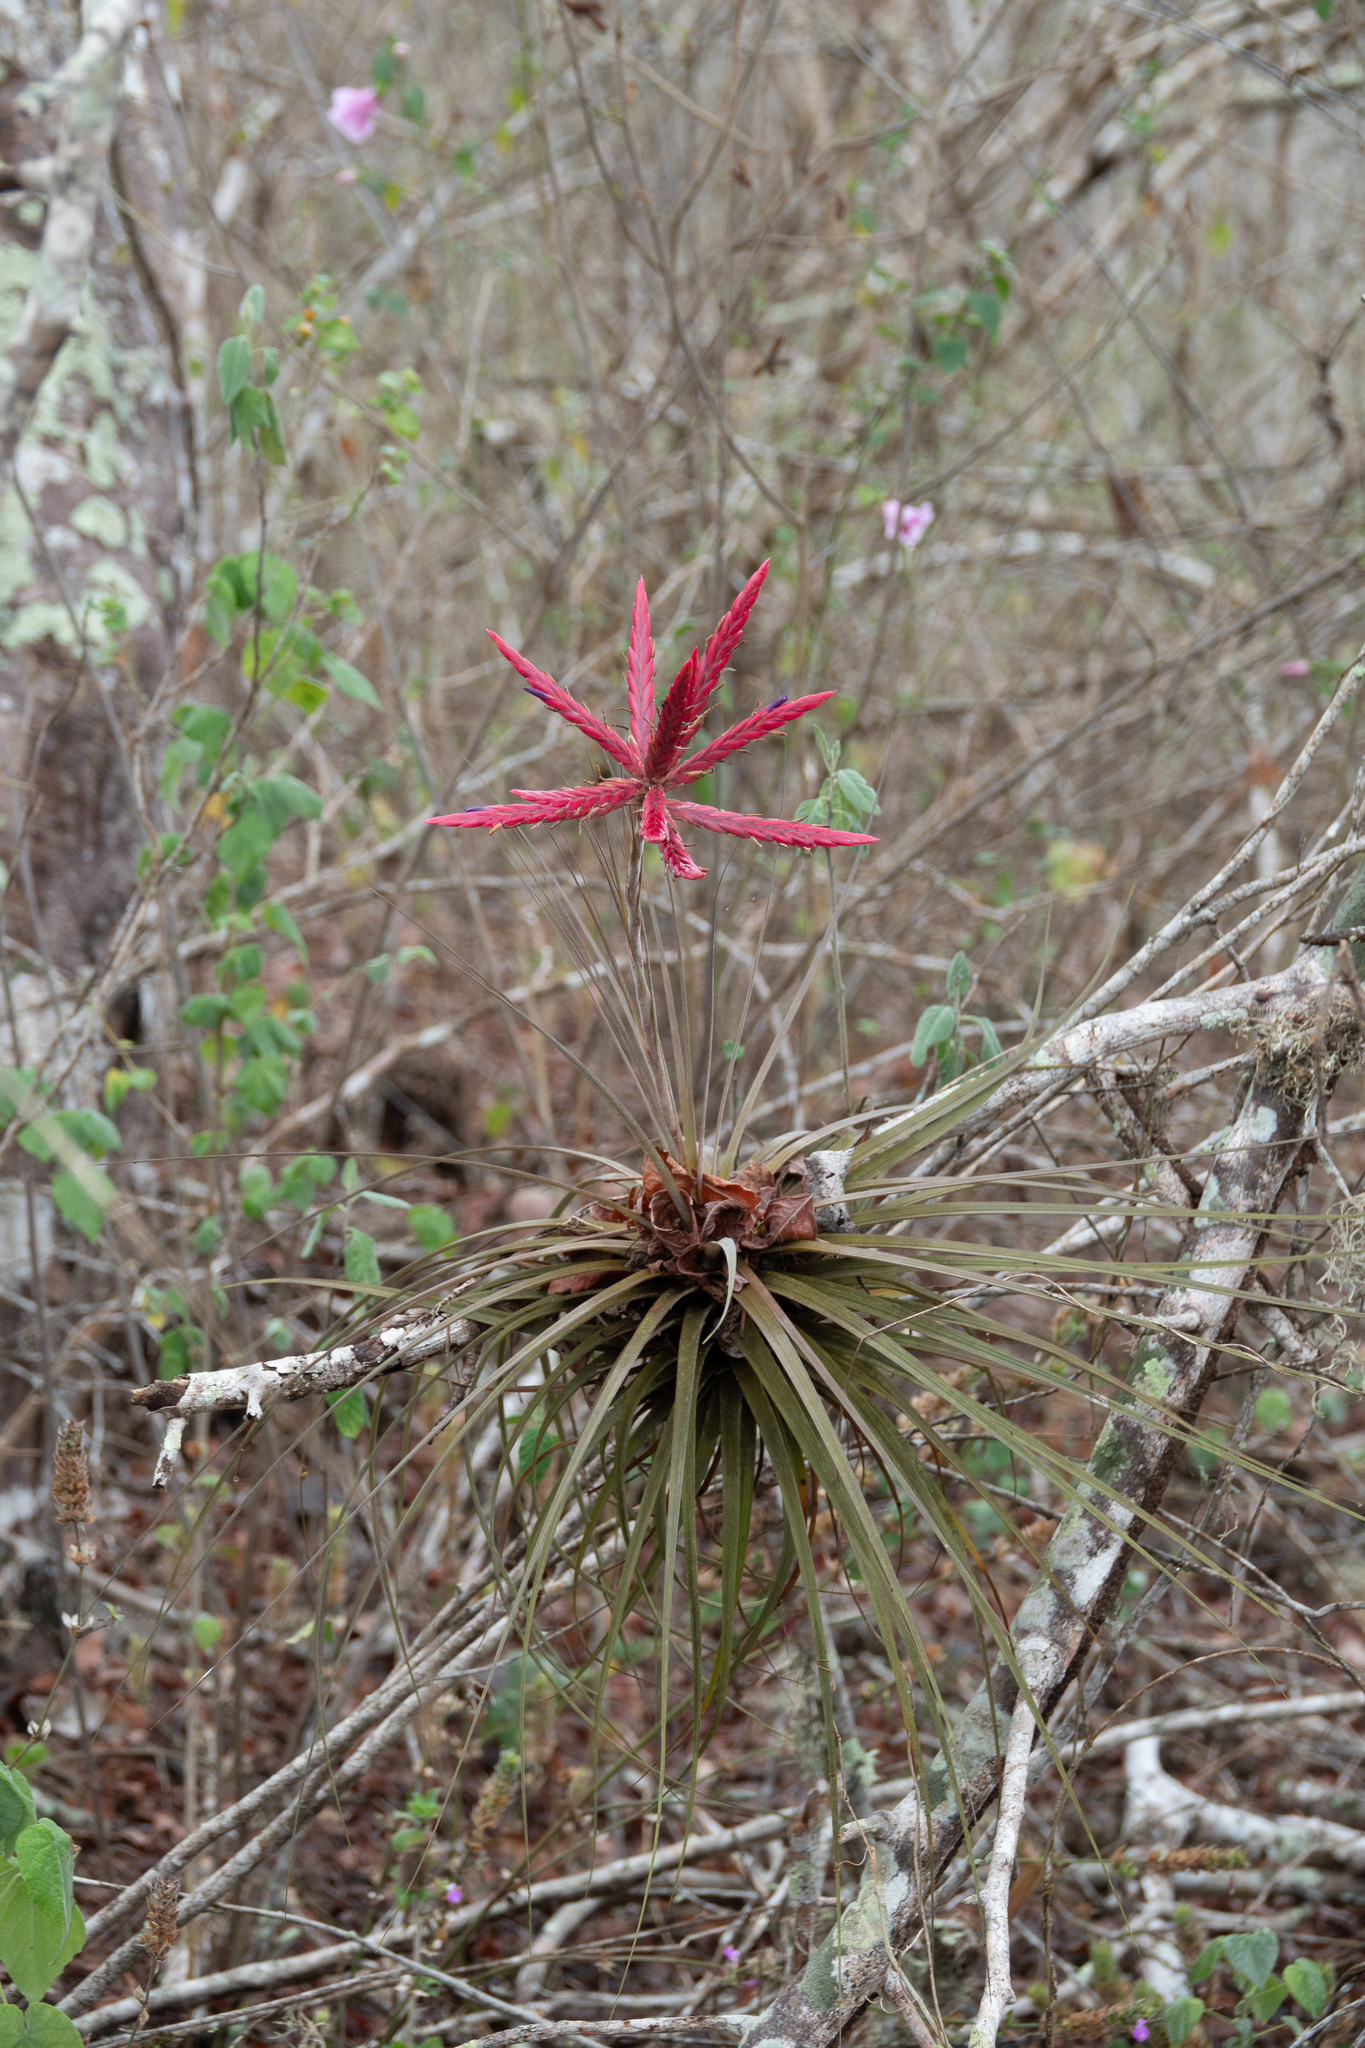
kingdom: Plantae
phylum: Tracheophyta
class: Liliopsida
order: Poales
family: Bromeliaceae
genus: Tillandsia
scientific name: Tillandsia pseudofloribunda
